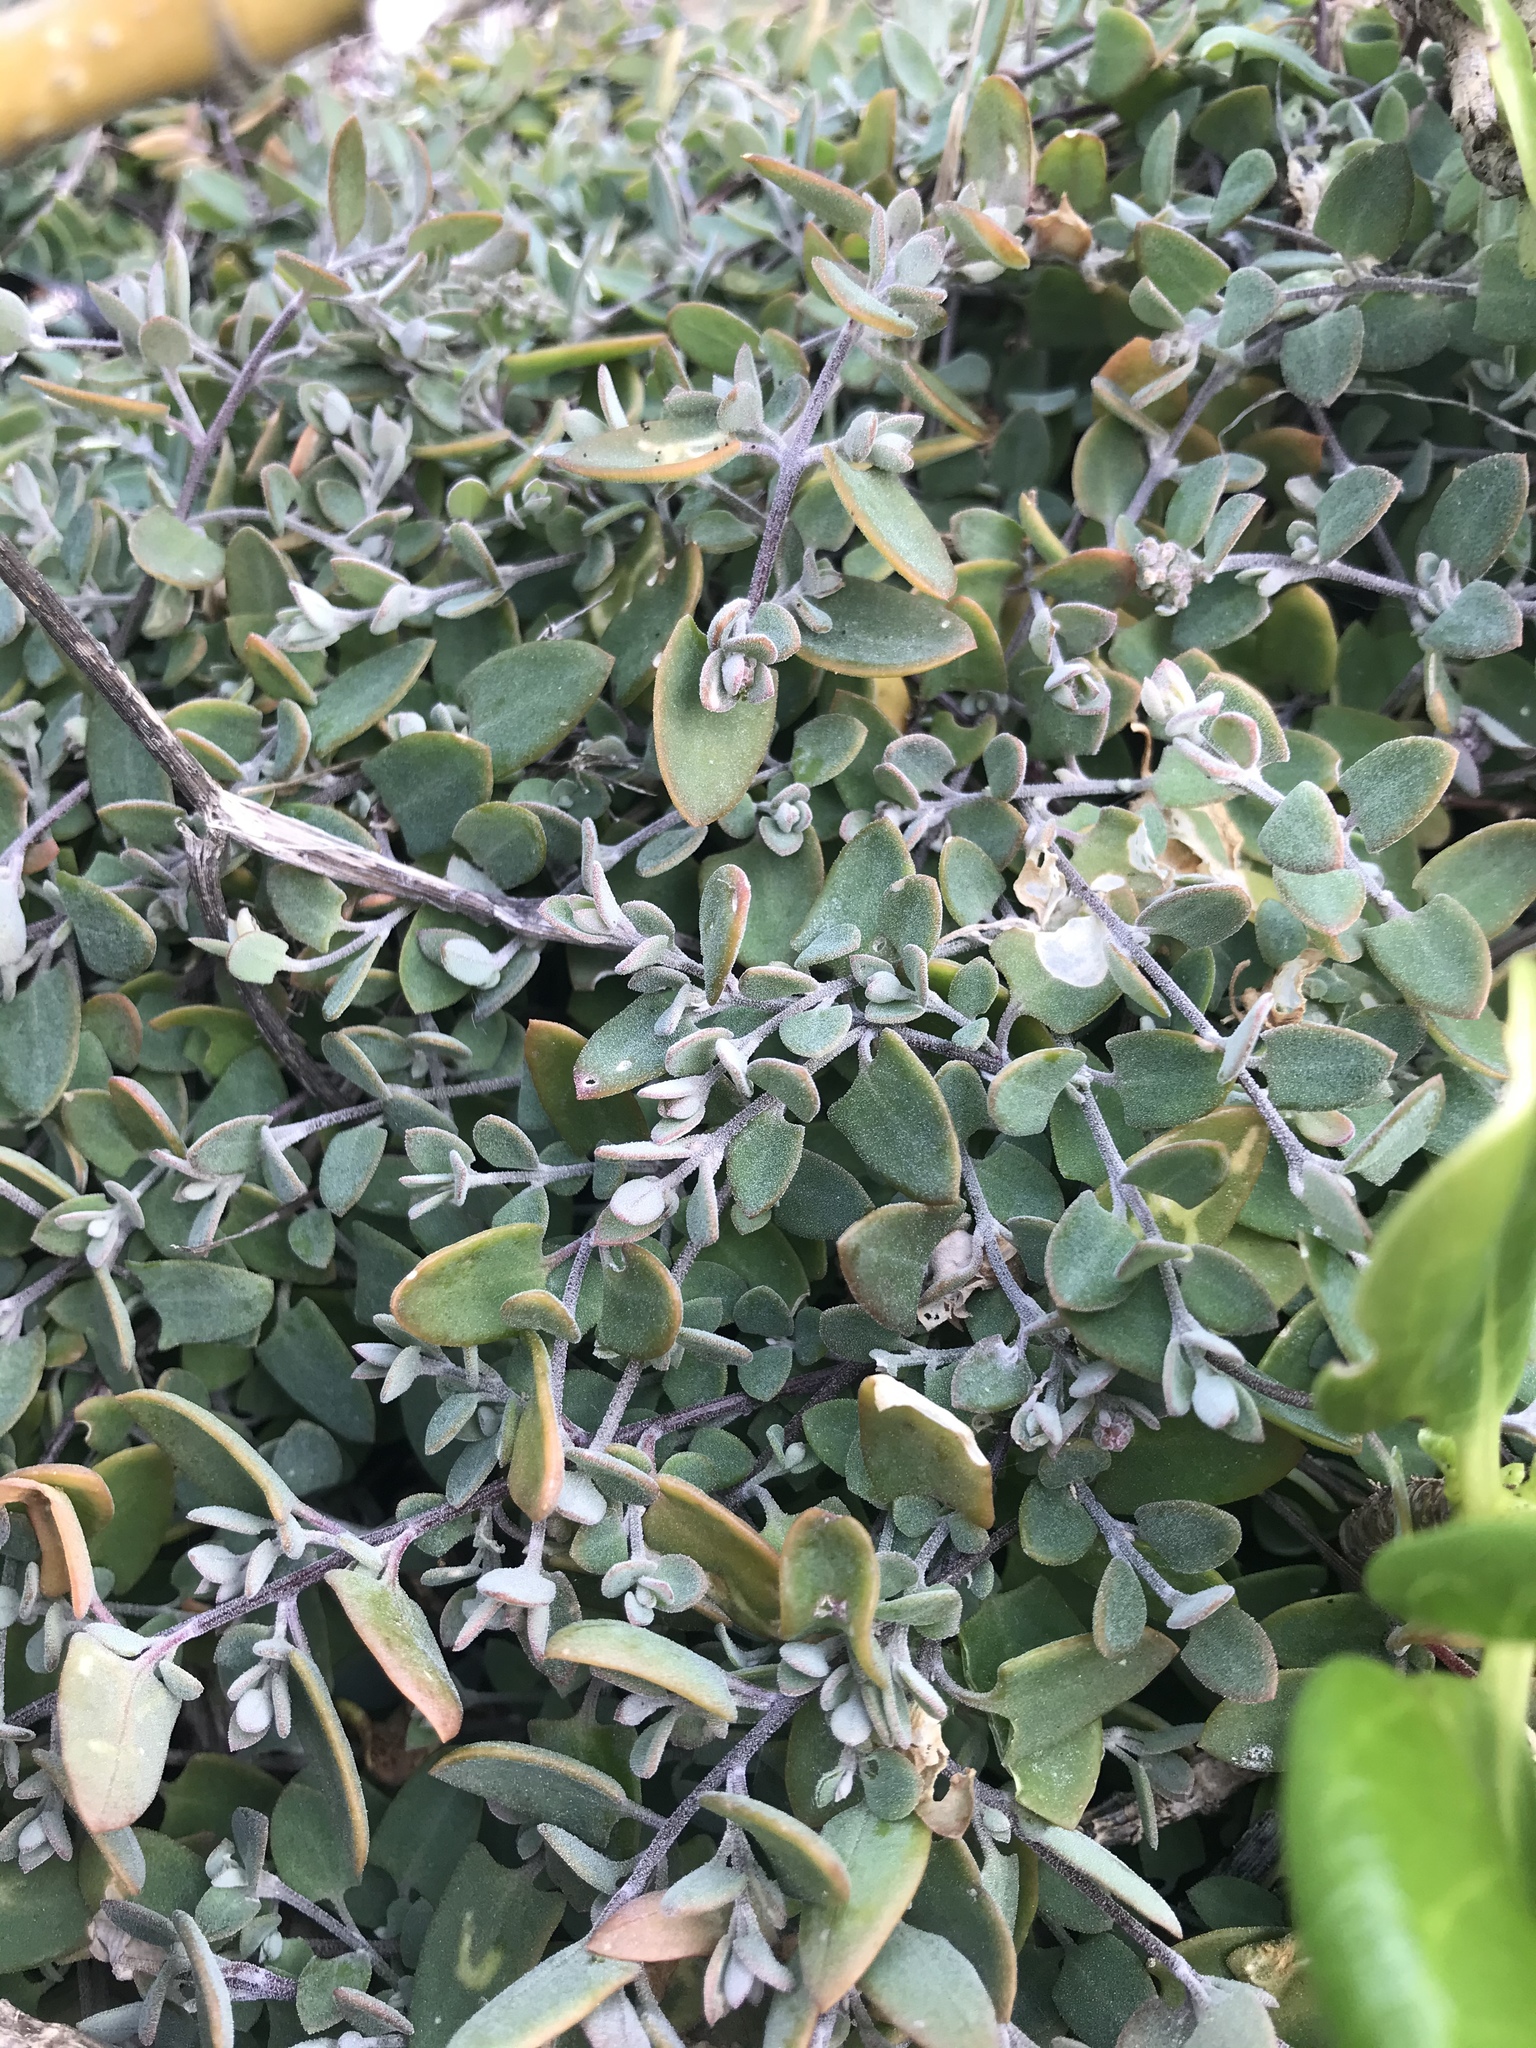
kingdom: Plantae
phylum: Tracheophyta
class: Magnoliopsida
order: Caryophyllales
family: Amaranthaceae
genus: Chenopodium
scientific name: Chenopodium triandrum
